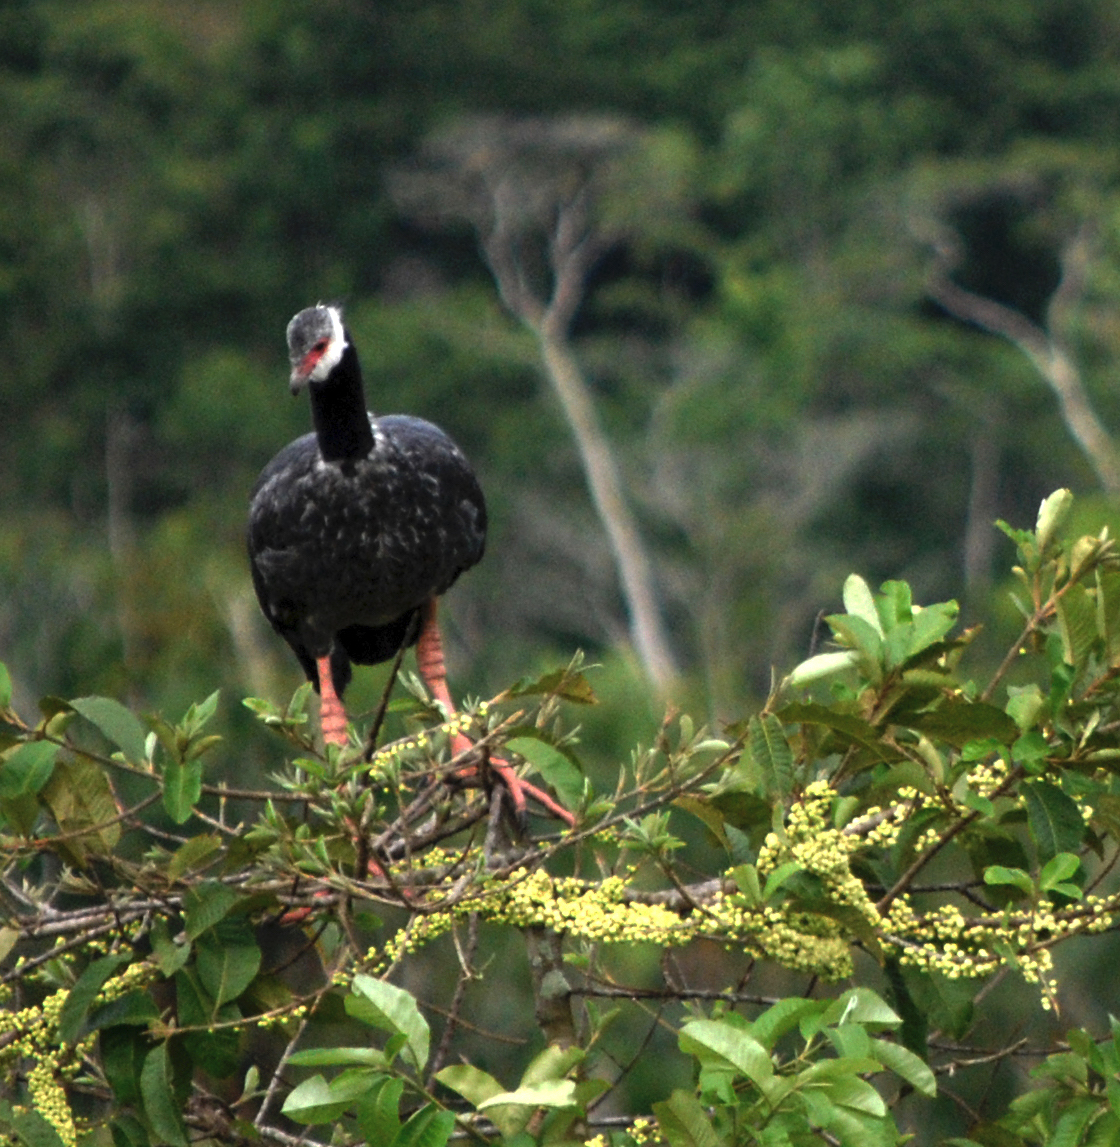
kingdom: Animalia
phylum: Chordata
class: Aves
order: Anseriformes
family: Anhimidae
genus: Chauna
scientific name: Chauna chavaria
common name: Northern screamer
